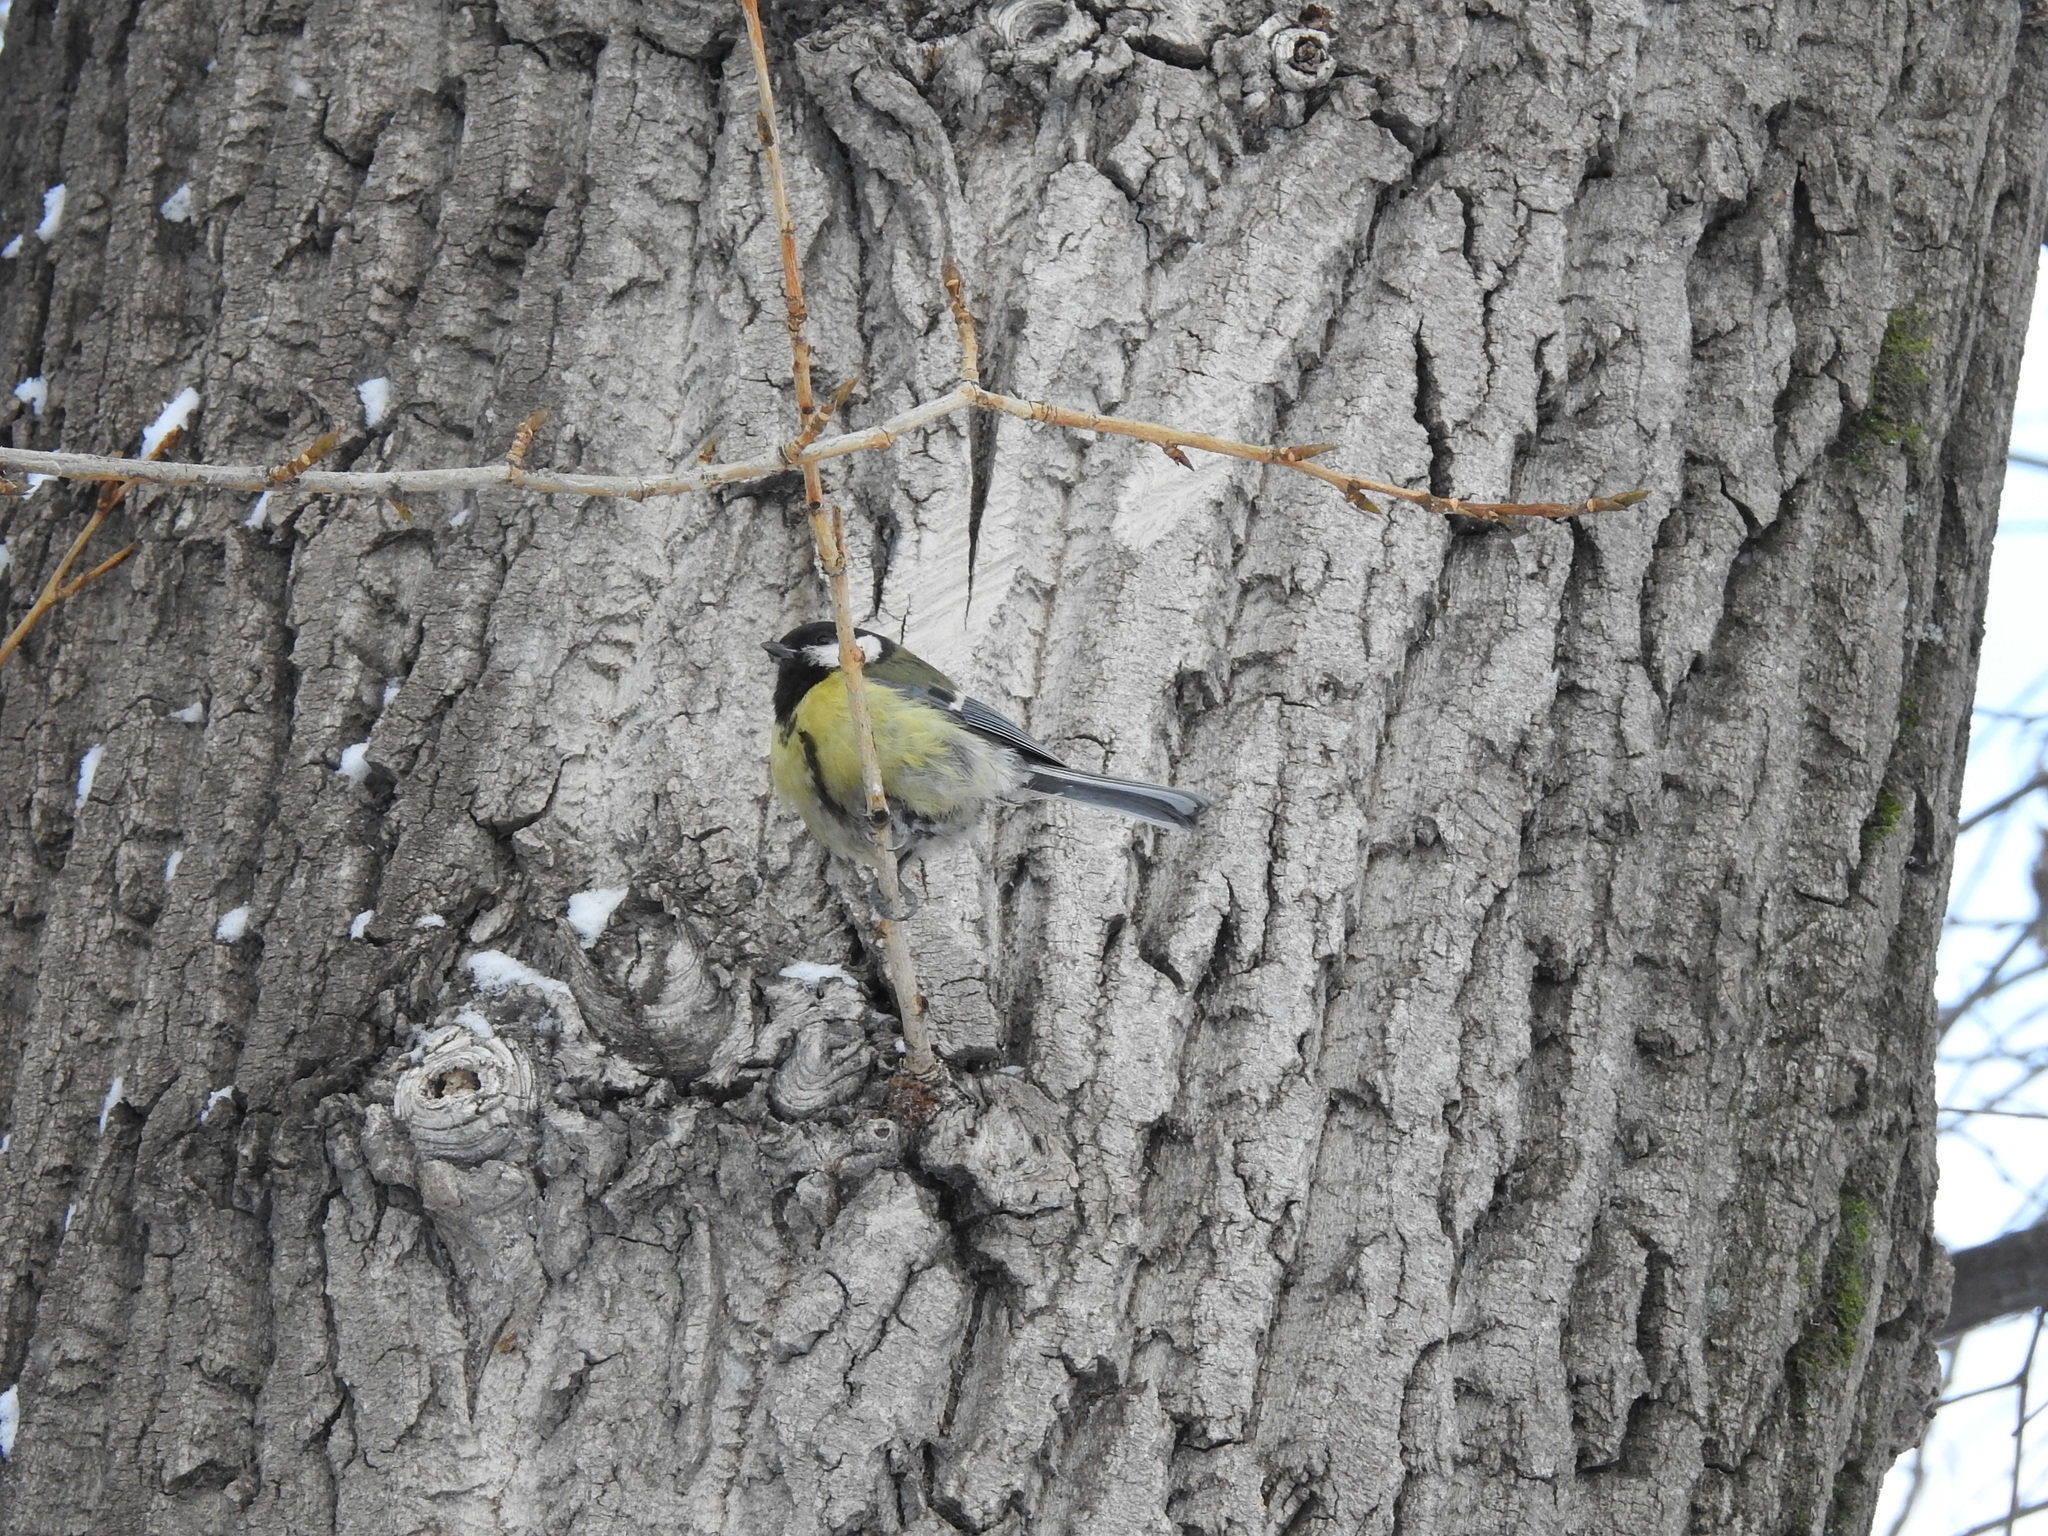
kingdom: Animalia
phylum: Chordata
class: Aves
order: Passeriformes
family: Paridae
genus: Parus
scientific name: Parus major
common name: Great tit
